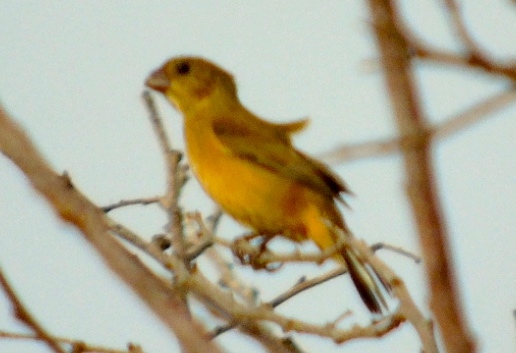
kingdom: Animalia
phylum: Chordata
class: Aves
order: Passeriformes
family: Thraupidae
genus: Sporophila
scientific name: Sporophila torqueola
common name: White-collared seedeater
